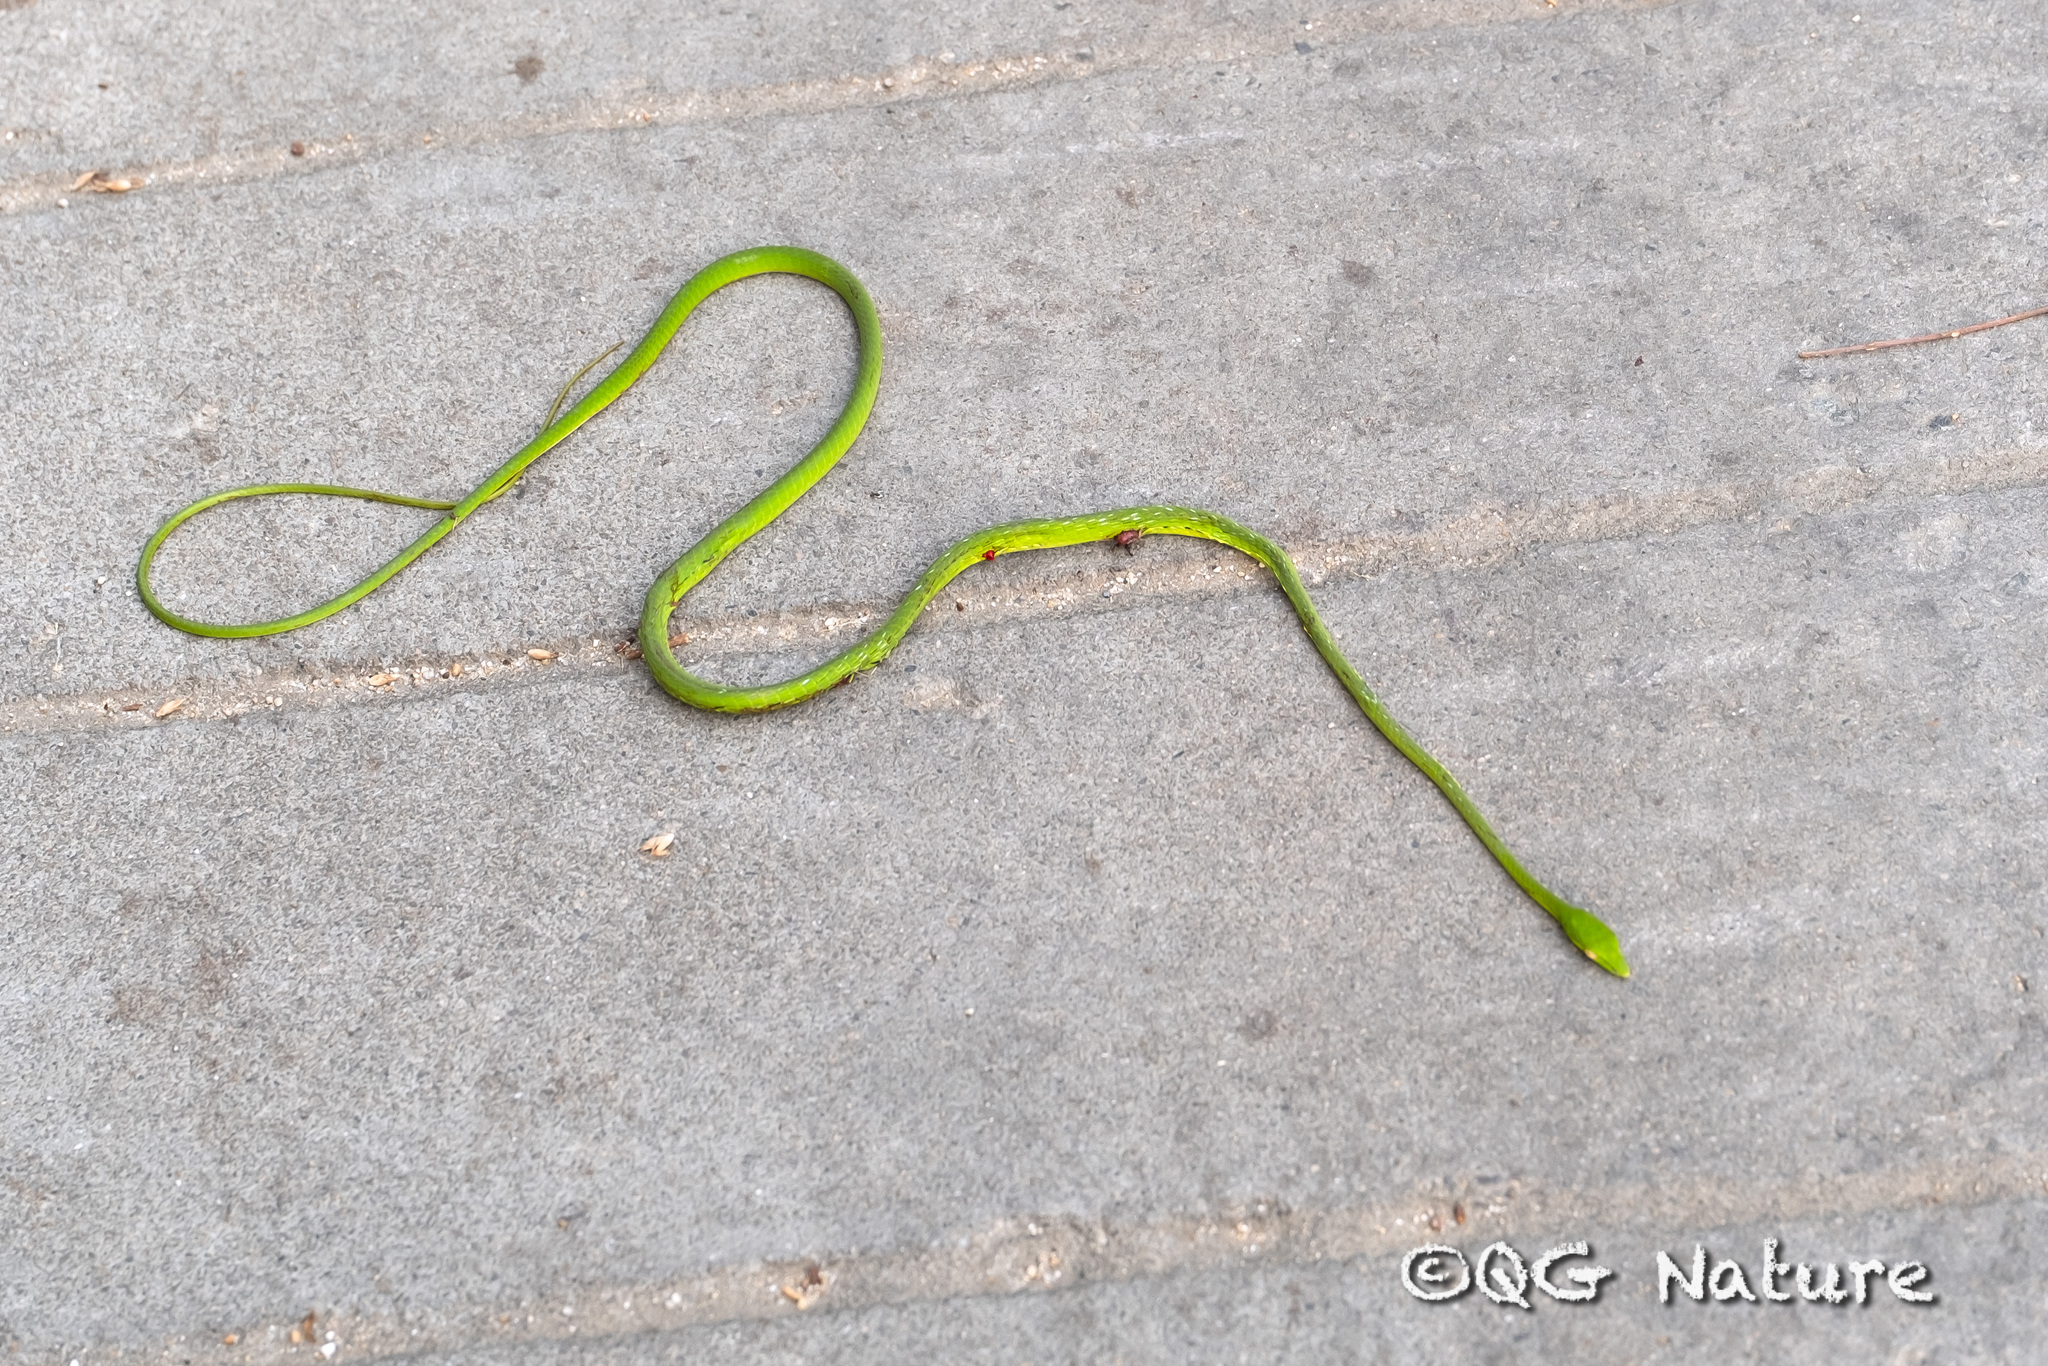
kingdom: Animalia
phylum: Chordata
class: Squamata
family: Colubridae
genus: Ahaetulla
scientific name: Ahaetulla prasina
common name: Oriental whip snake
